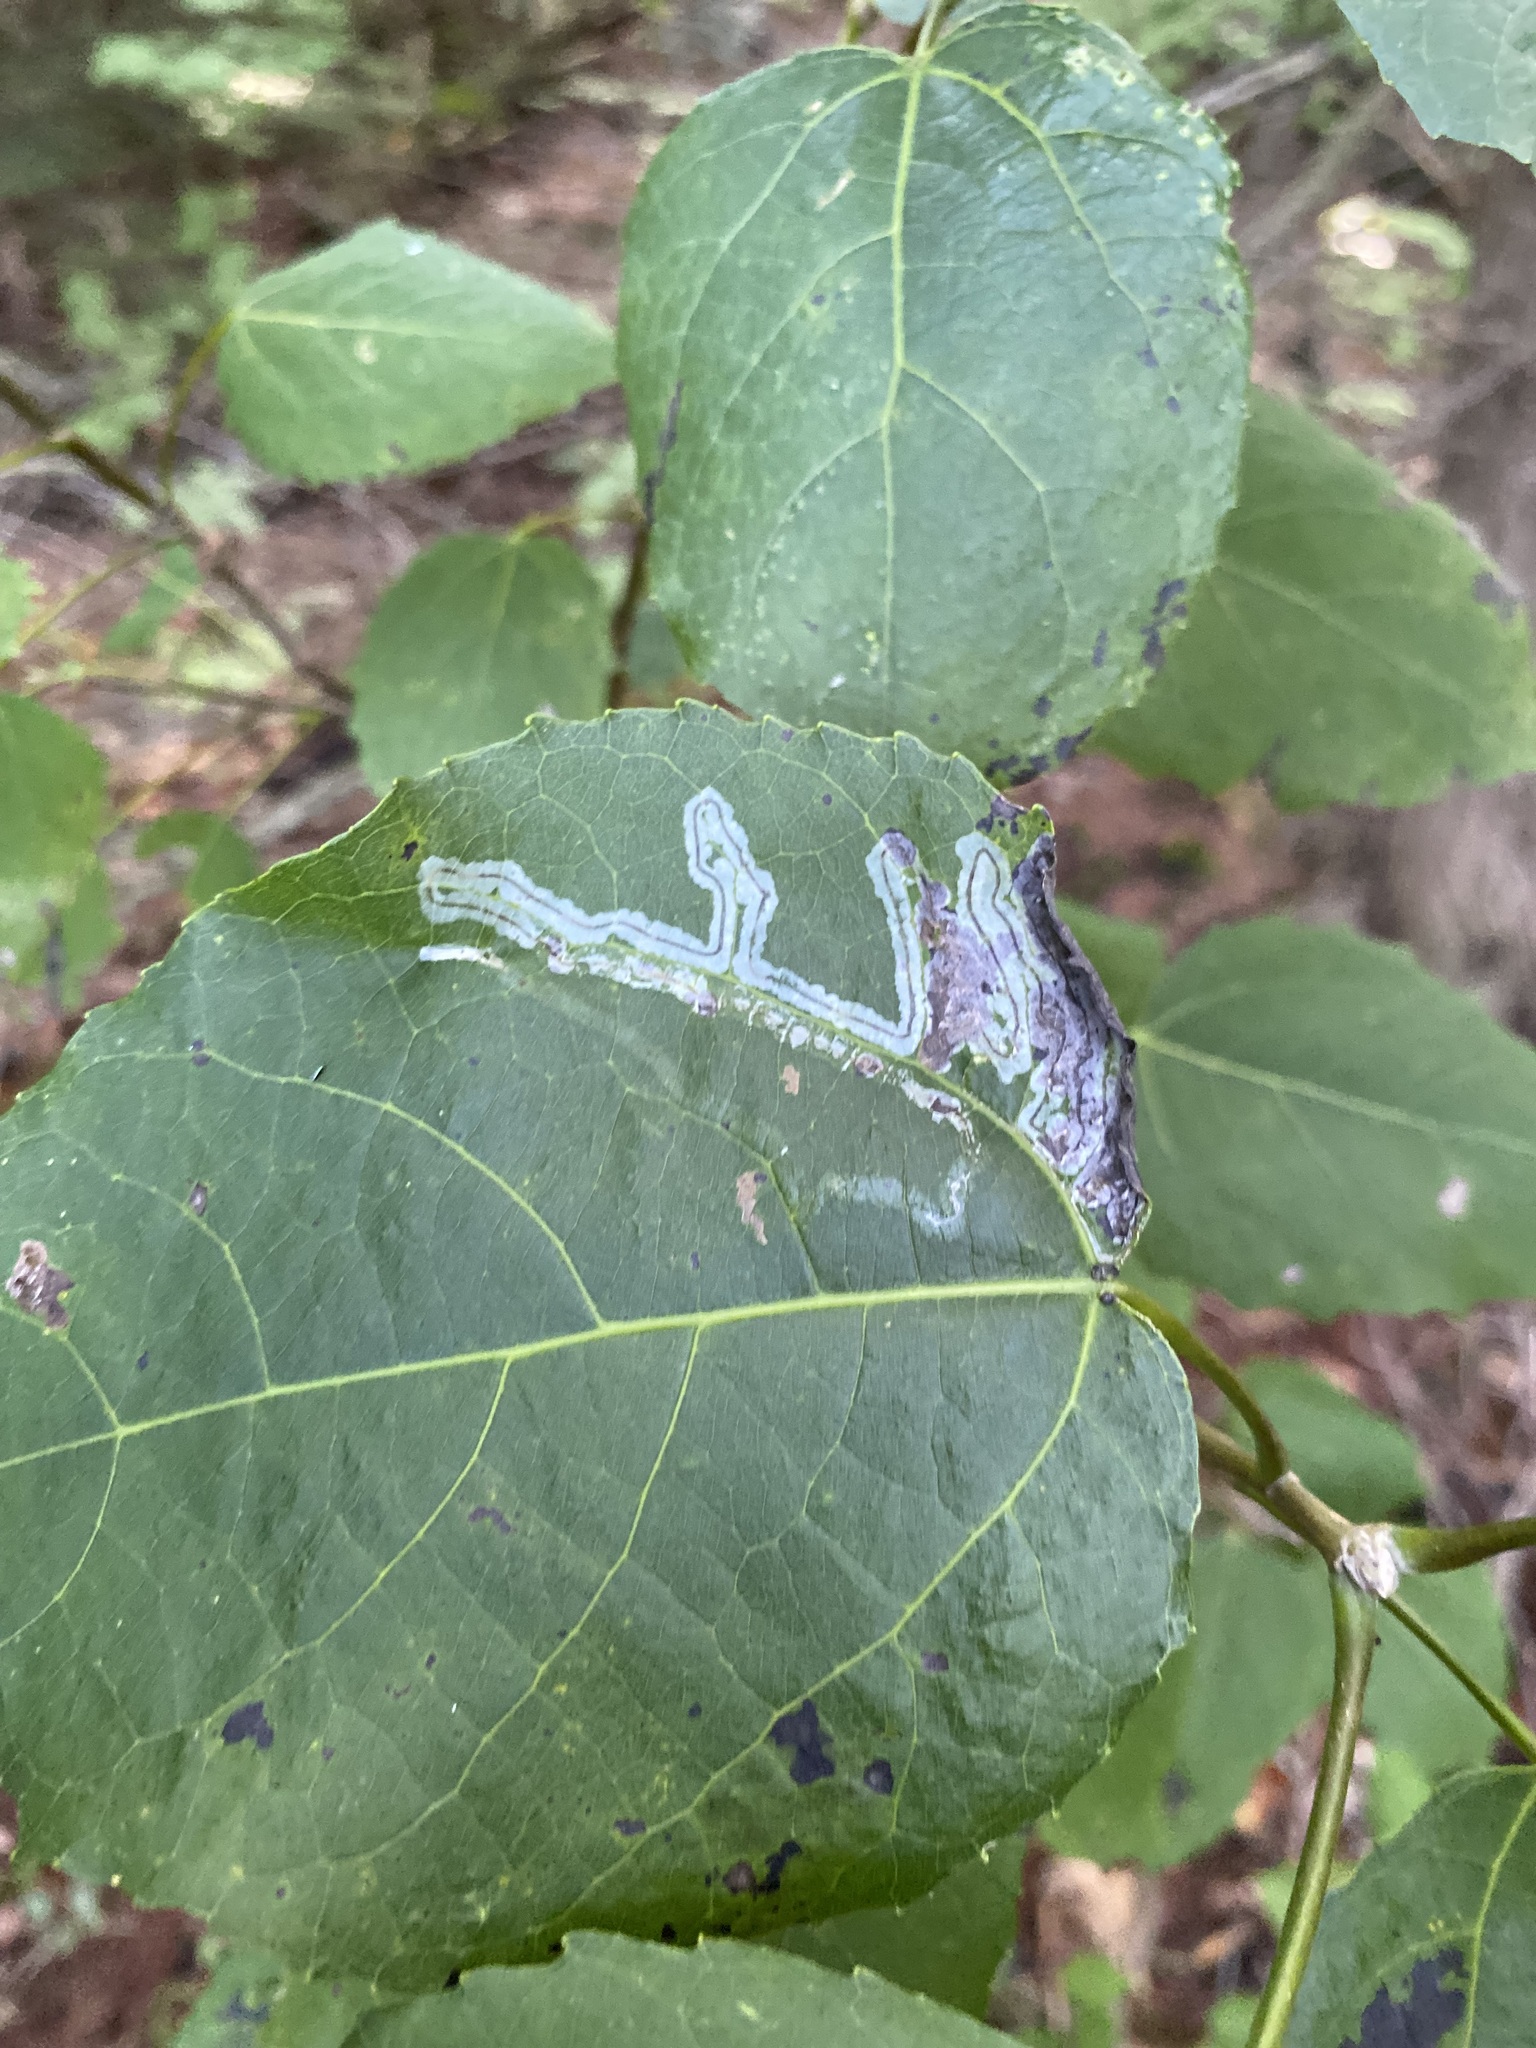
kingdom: Animalia
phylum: Arthropoda
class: Insecta
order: Lepidoptera
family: Gracillariidae
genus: Phyllocnistis
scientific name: Phyllocnistis populiella
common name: Aspen serpentine leafminer moth
